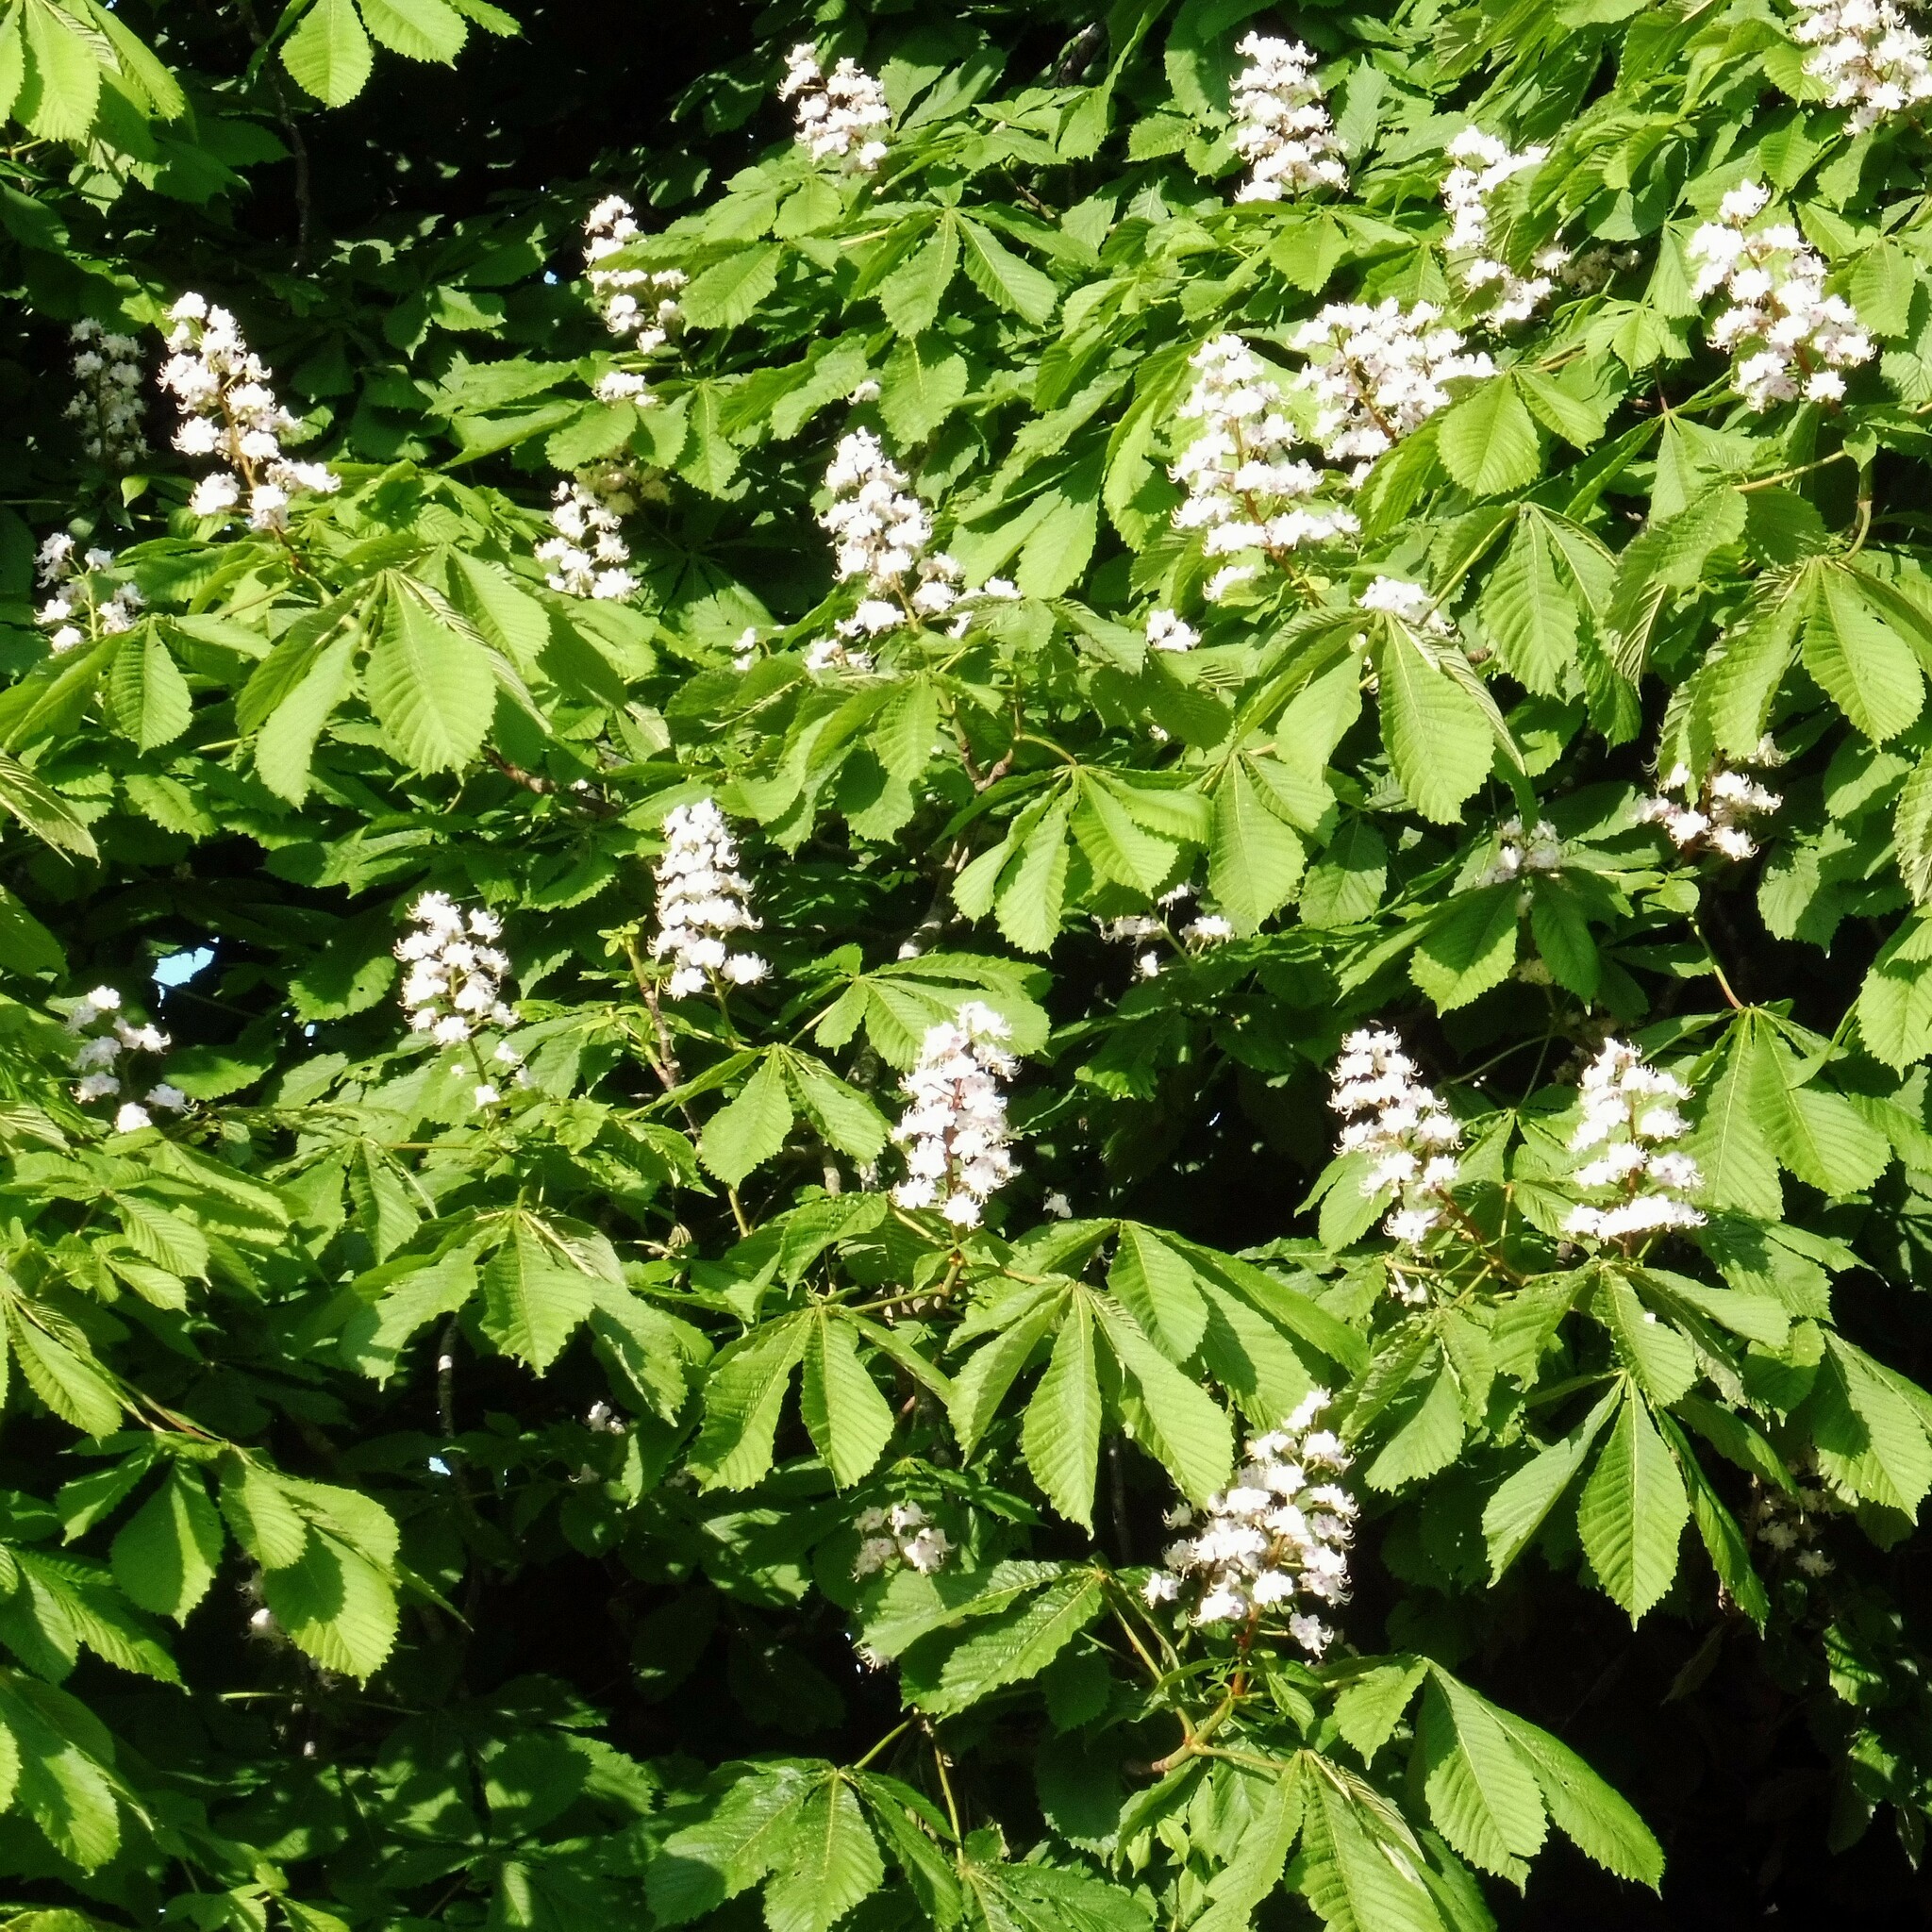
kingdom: Plantae
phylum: Tracheophyta
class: Magnoliopsida
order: Sapindales
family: Sapindaceae
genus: Aesculus
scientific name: Aesculus hippocastanum
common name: Horse-chestnut
